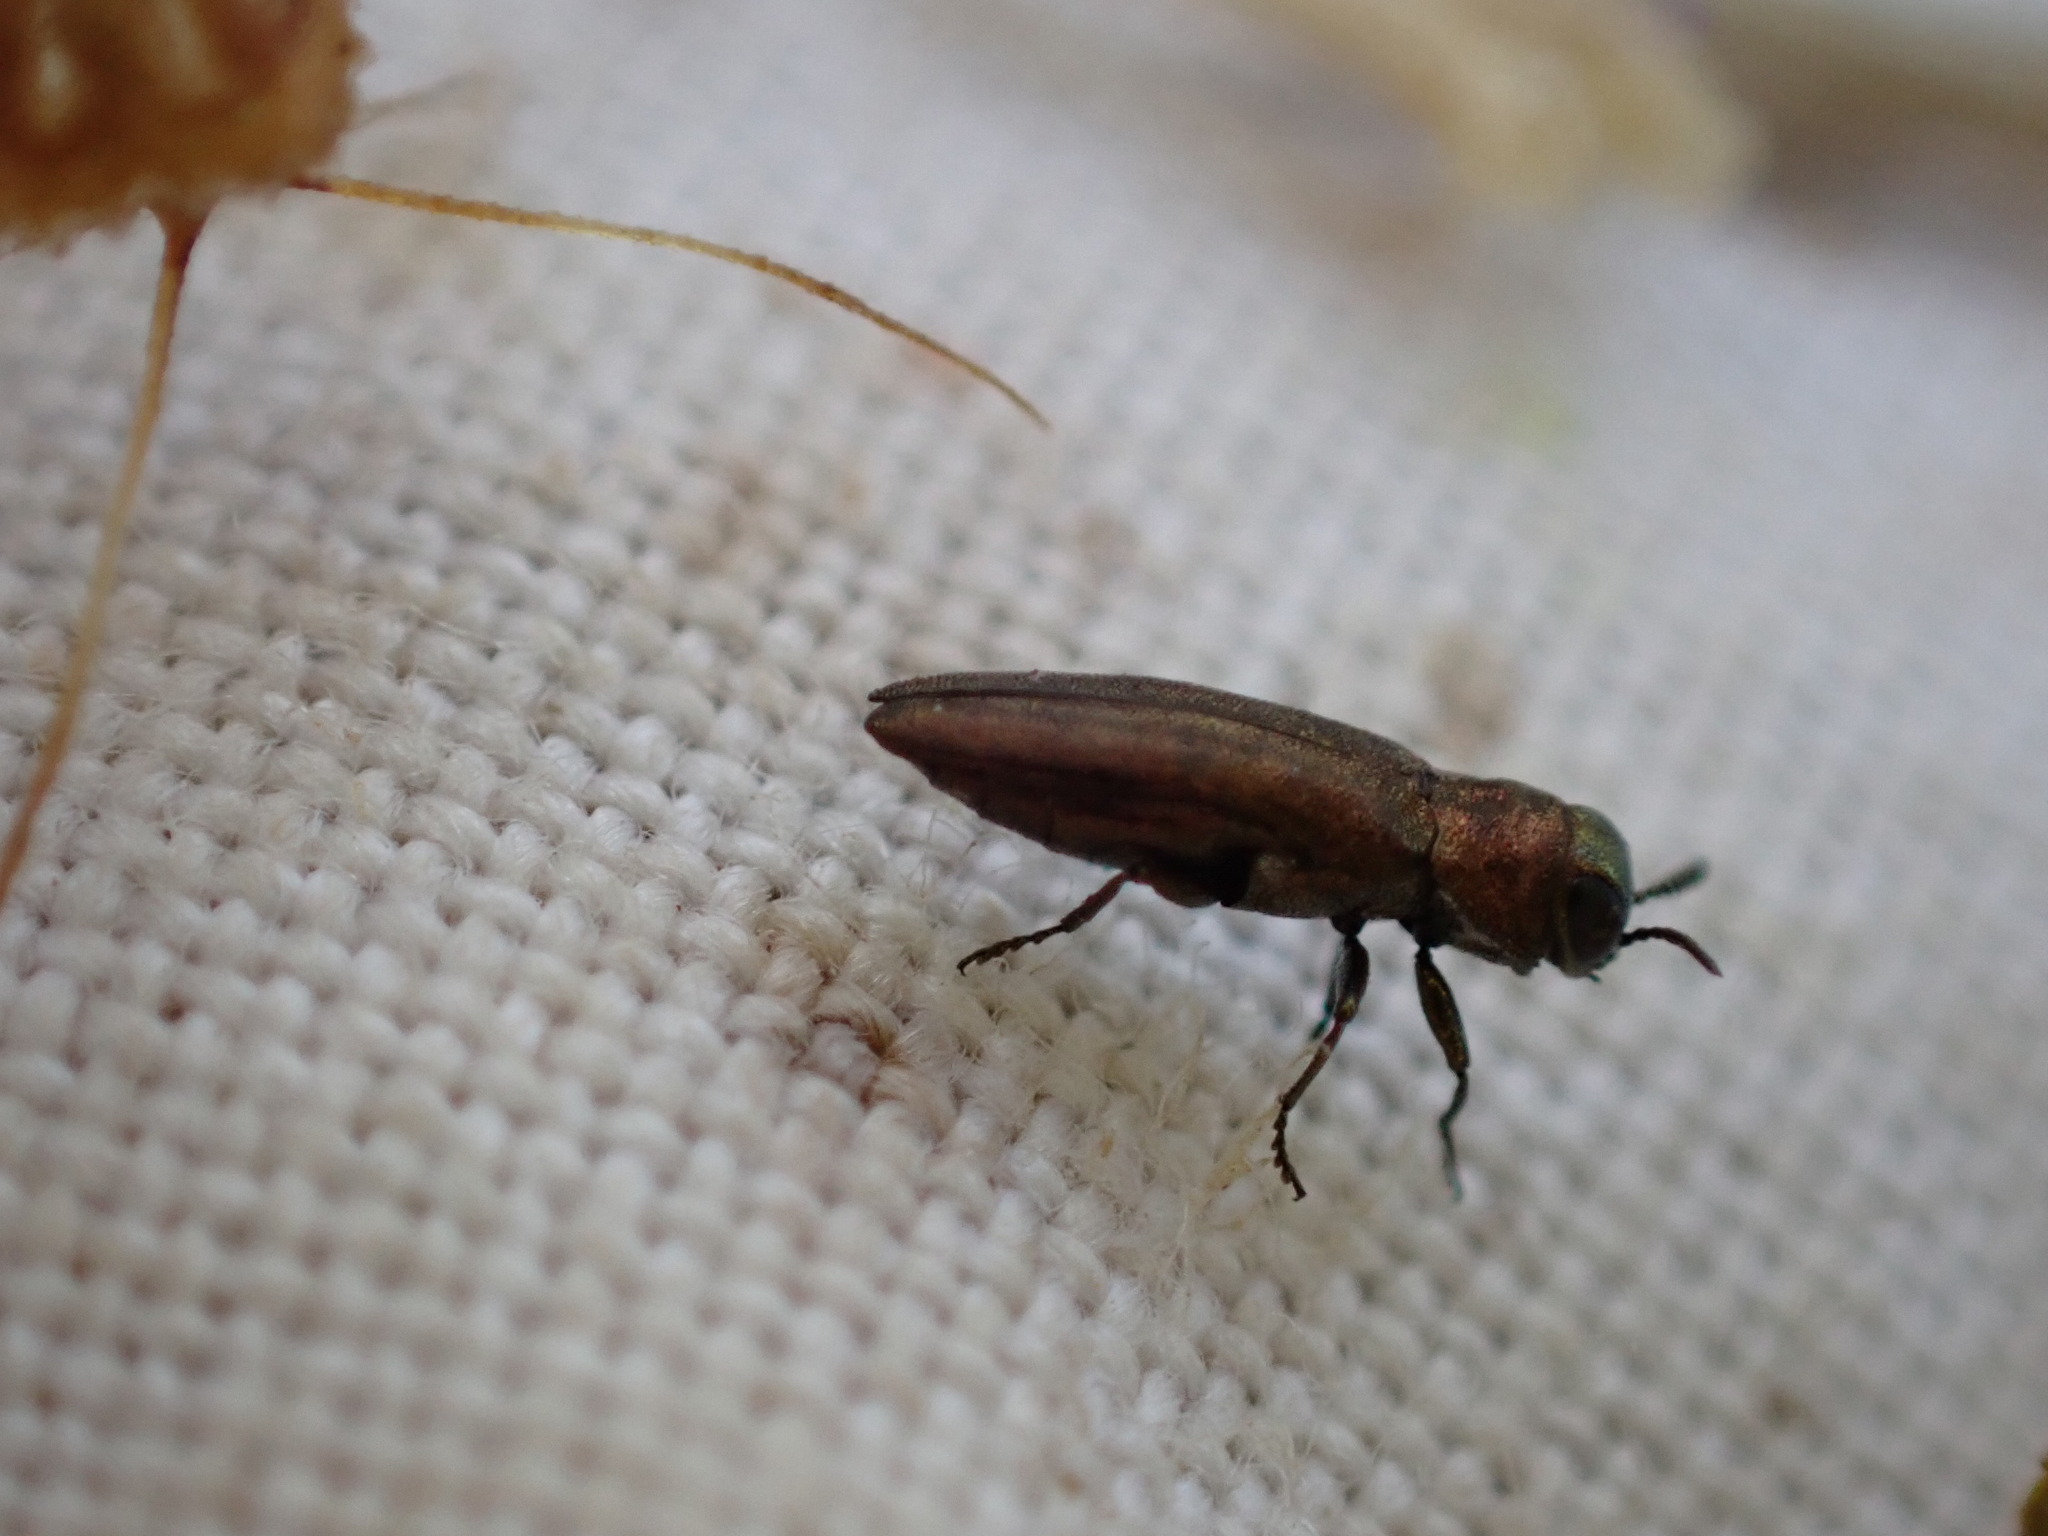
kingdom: Animalia
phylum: Arthropoda
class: Insecta
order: Coleoptera
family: Buprestidae
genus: Agrilus
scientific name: Agrilus hyperici
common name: St. john's wort root borer
